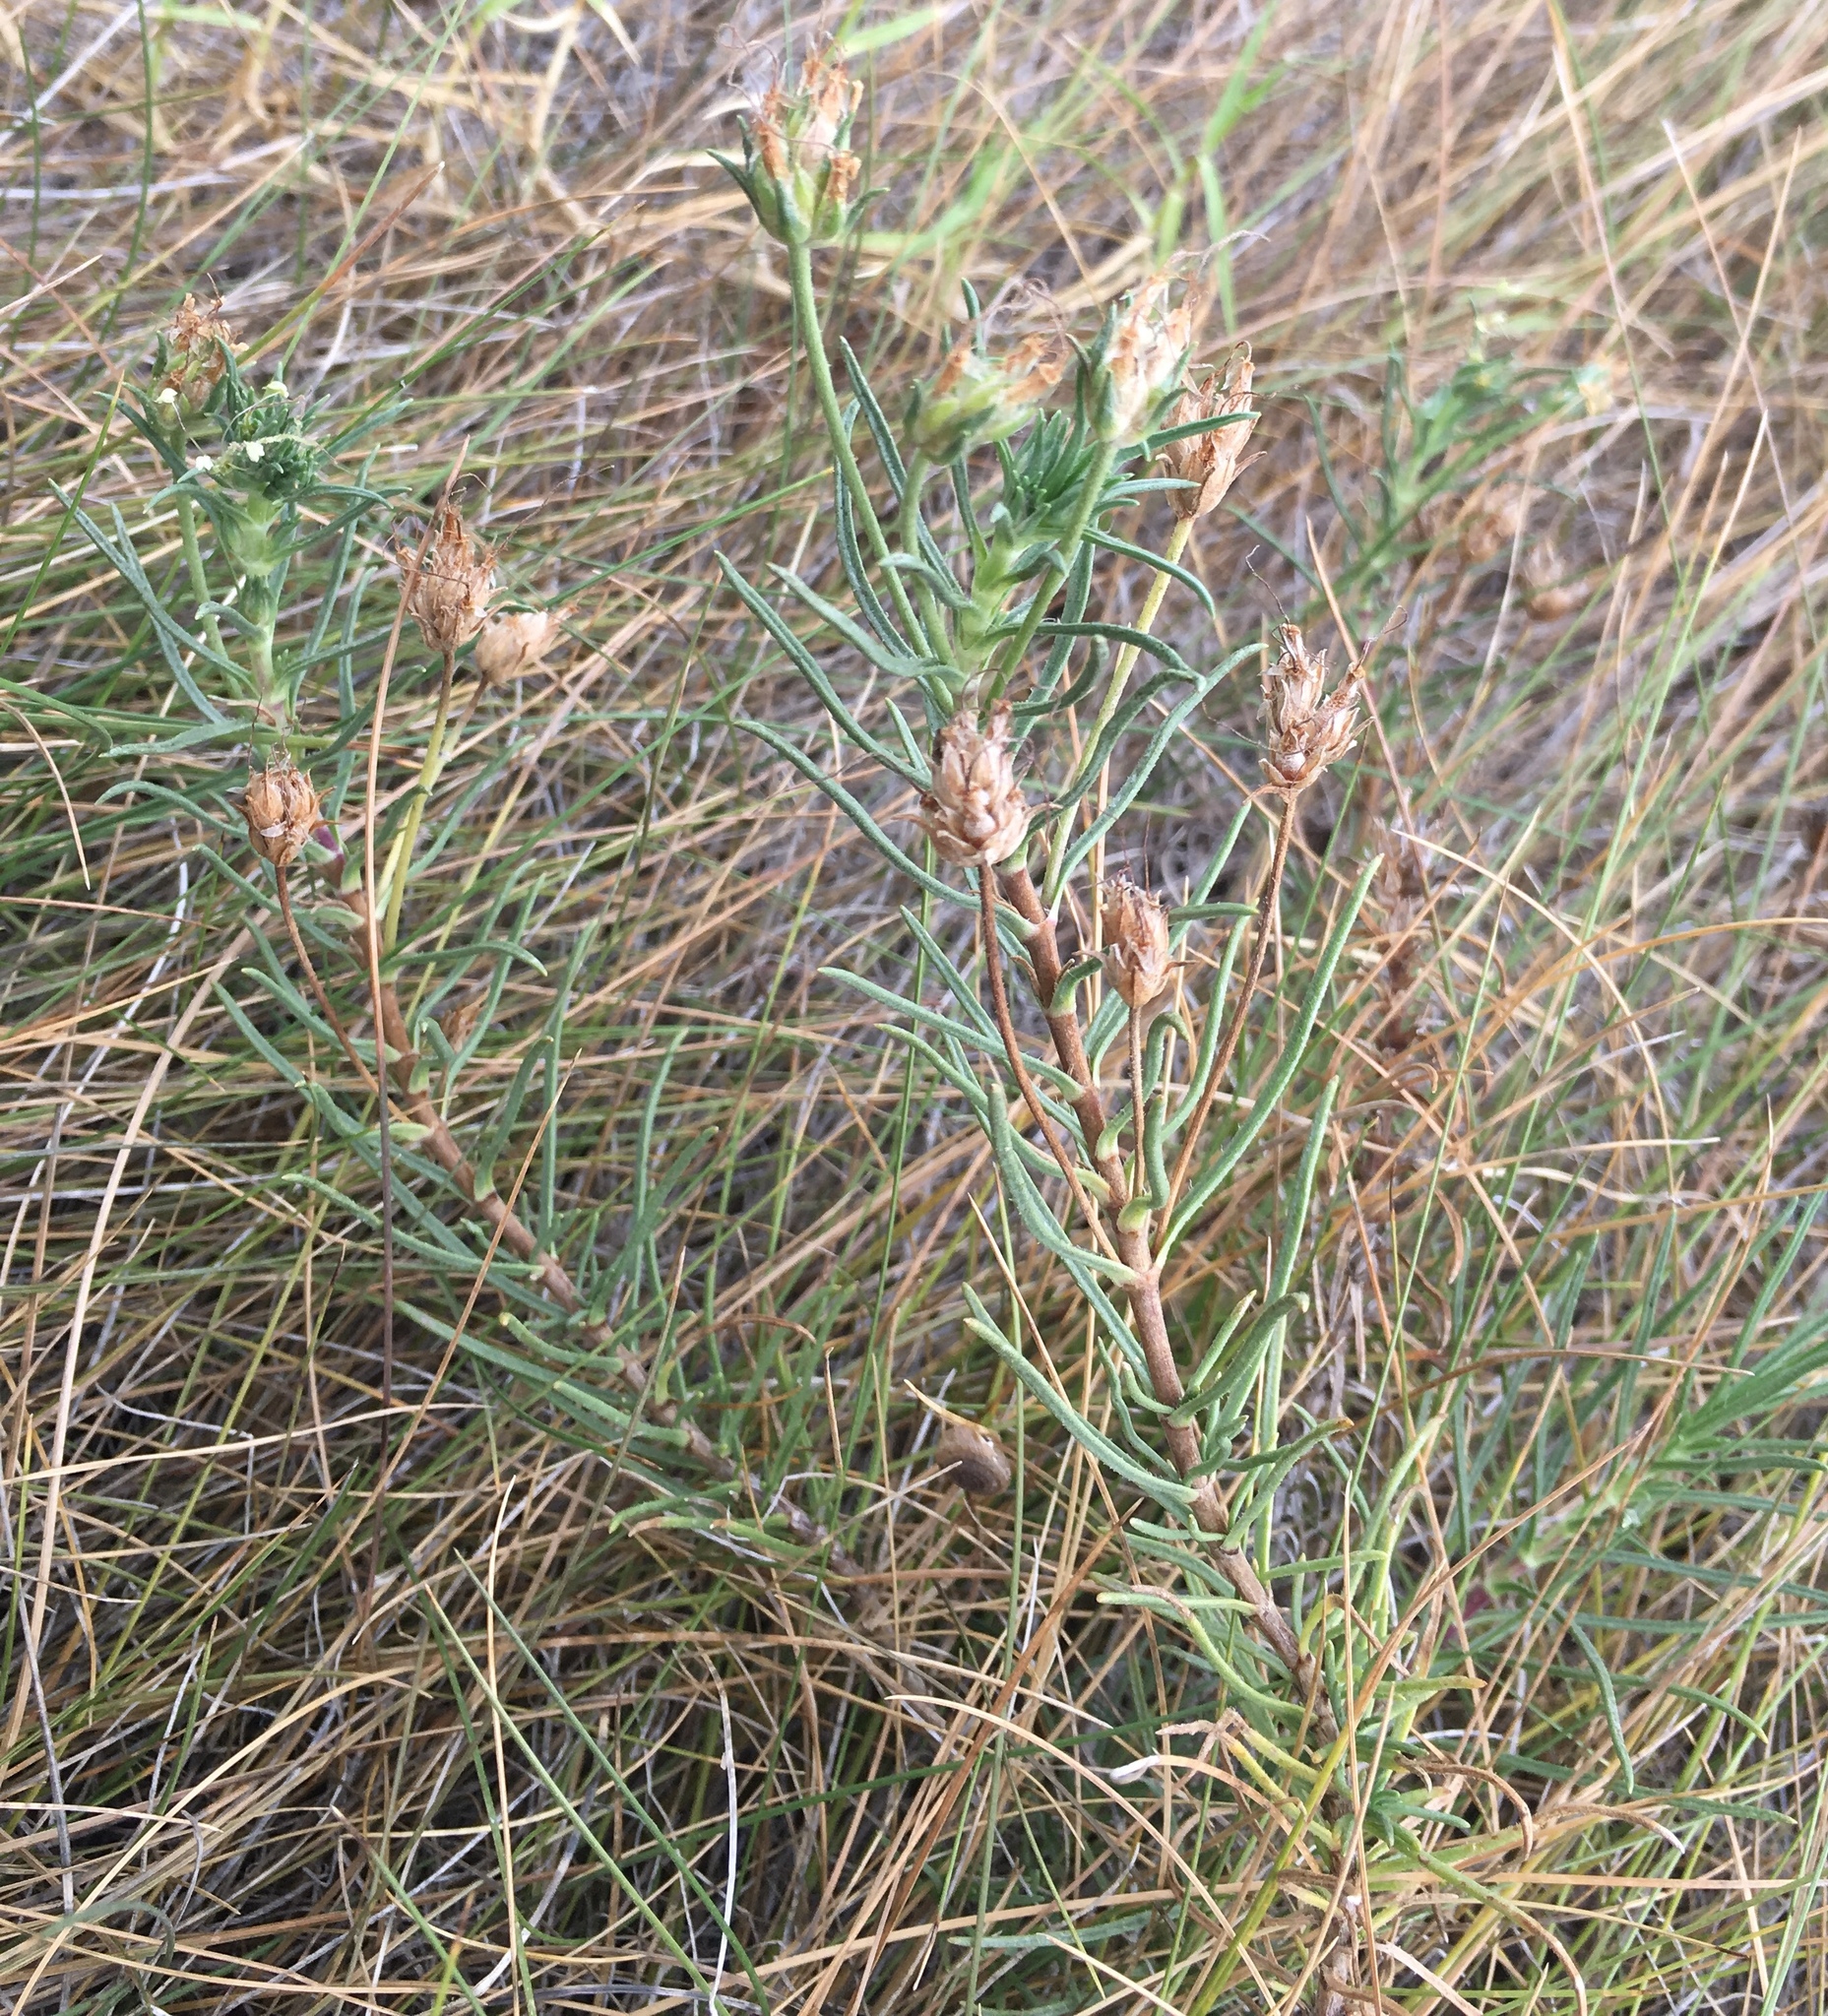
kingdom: Plantae
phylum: Tracheophyta
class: Magnoliopsida
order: Lamiales
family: Plantaginaceae
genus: Plantago
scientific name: Plantago arenaria
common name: Branched plantain
